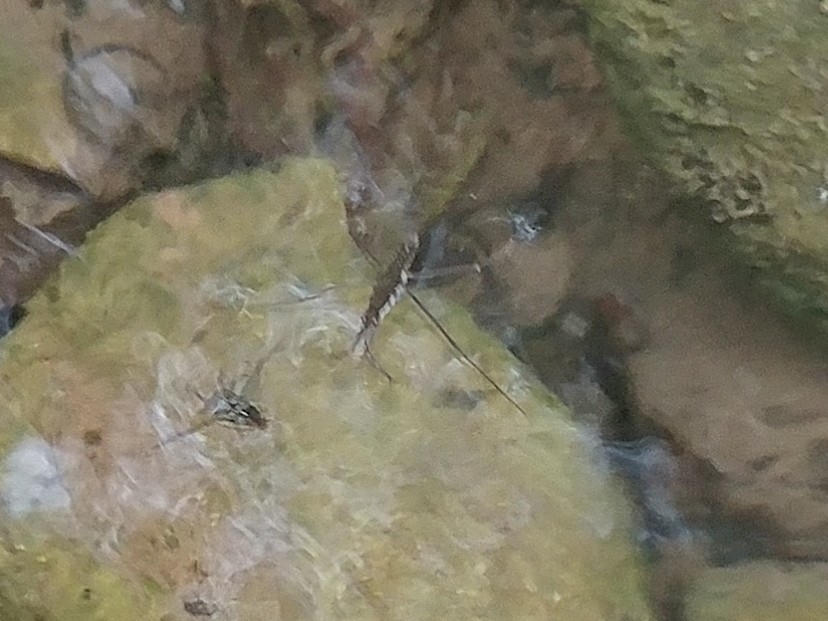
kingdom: Animalia
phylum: Arthropoda
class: Insecta
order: Hemiptera
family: Gerridae
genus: Aquarius
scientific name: Aquarius remigis
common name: Common water strider
